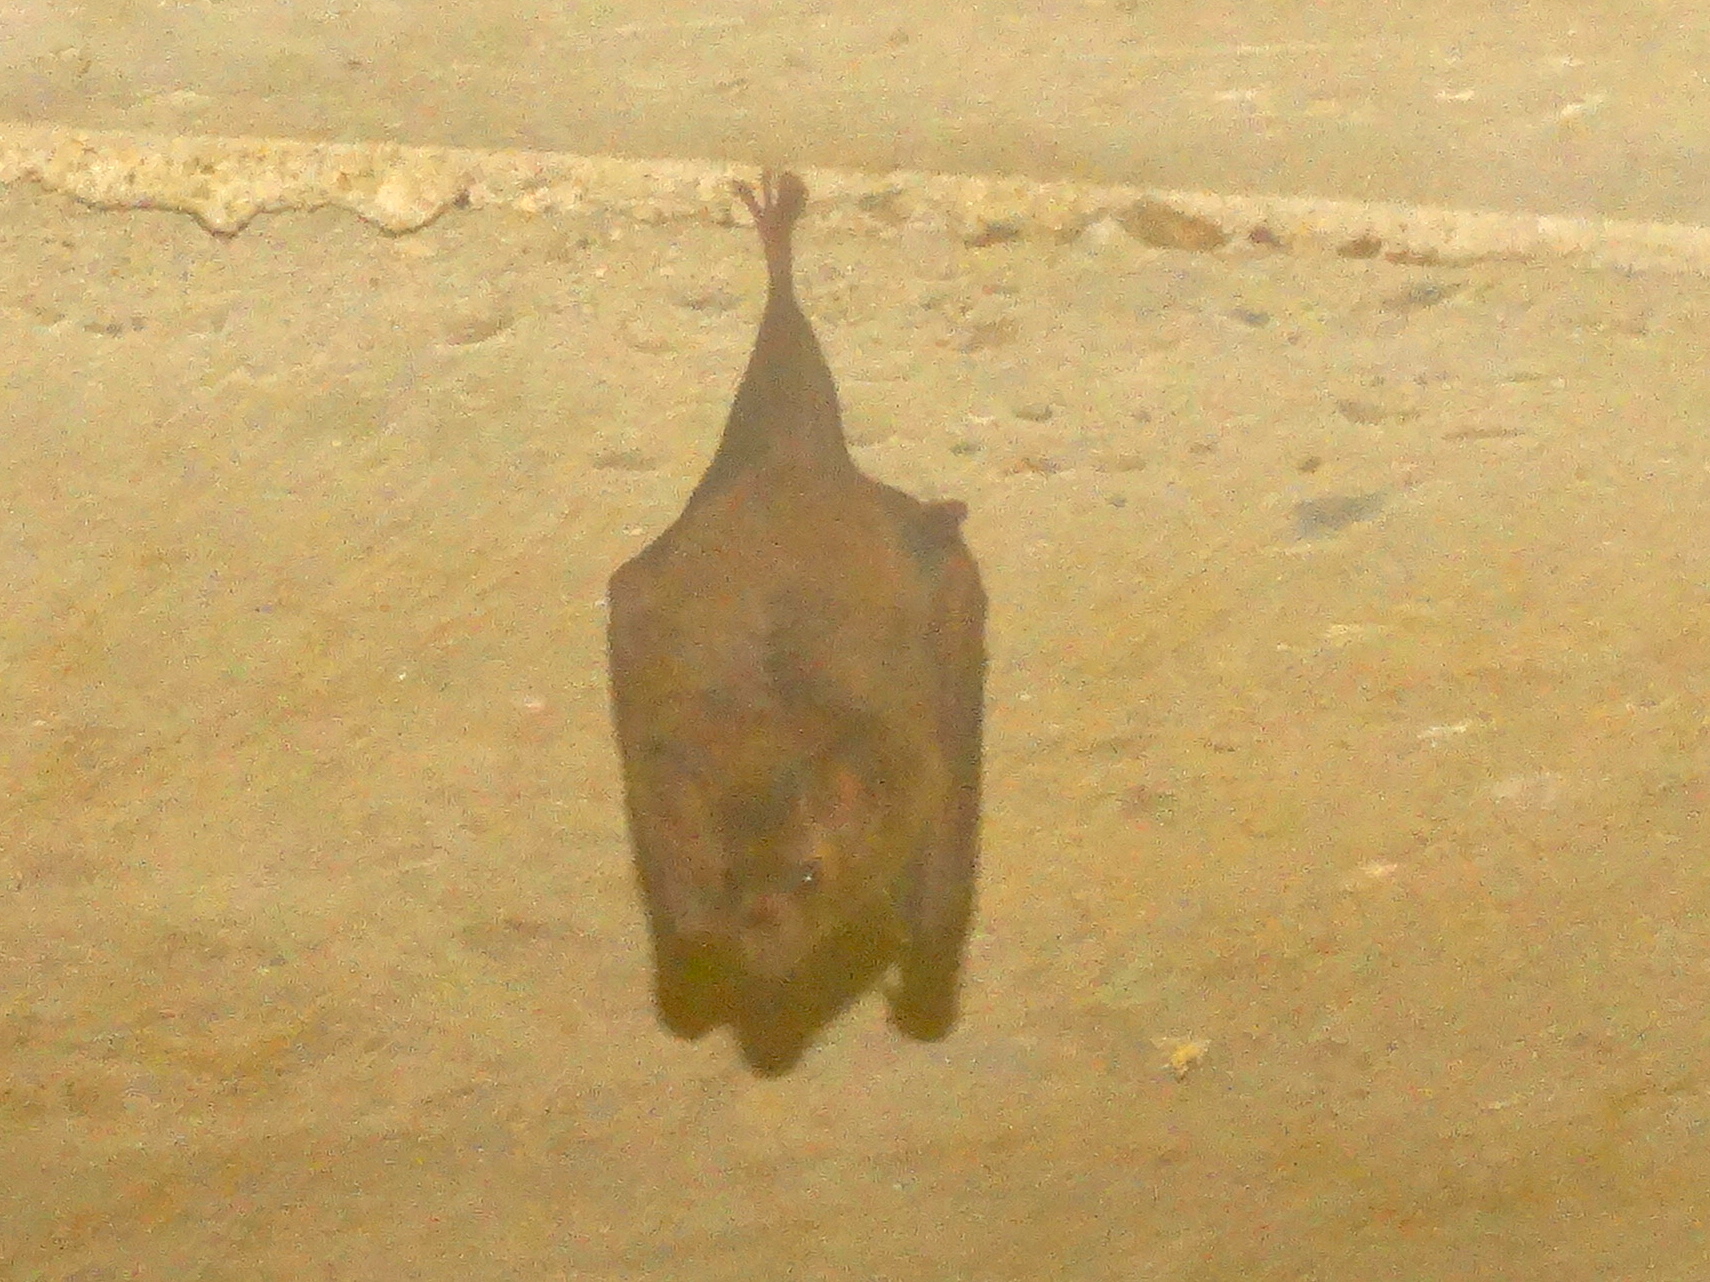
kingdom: Animalia
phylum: Chordata
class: Mammalia
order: Chiroptera
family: Phyllostomidae
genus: Glossophaga
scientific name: Glossophaga
